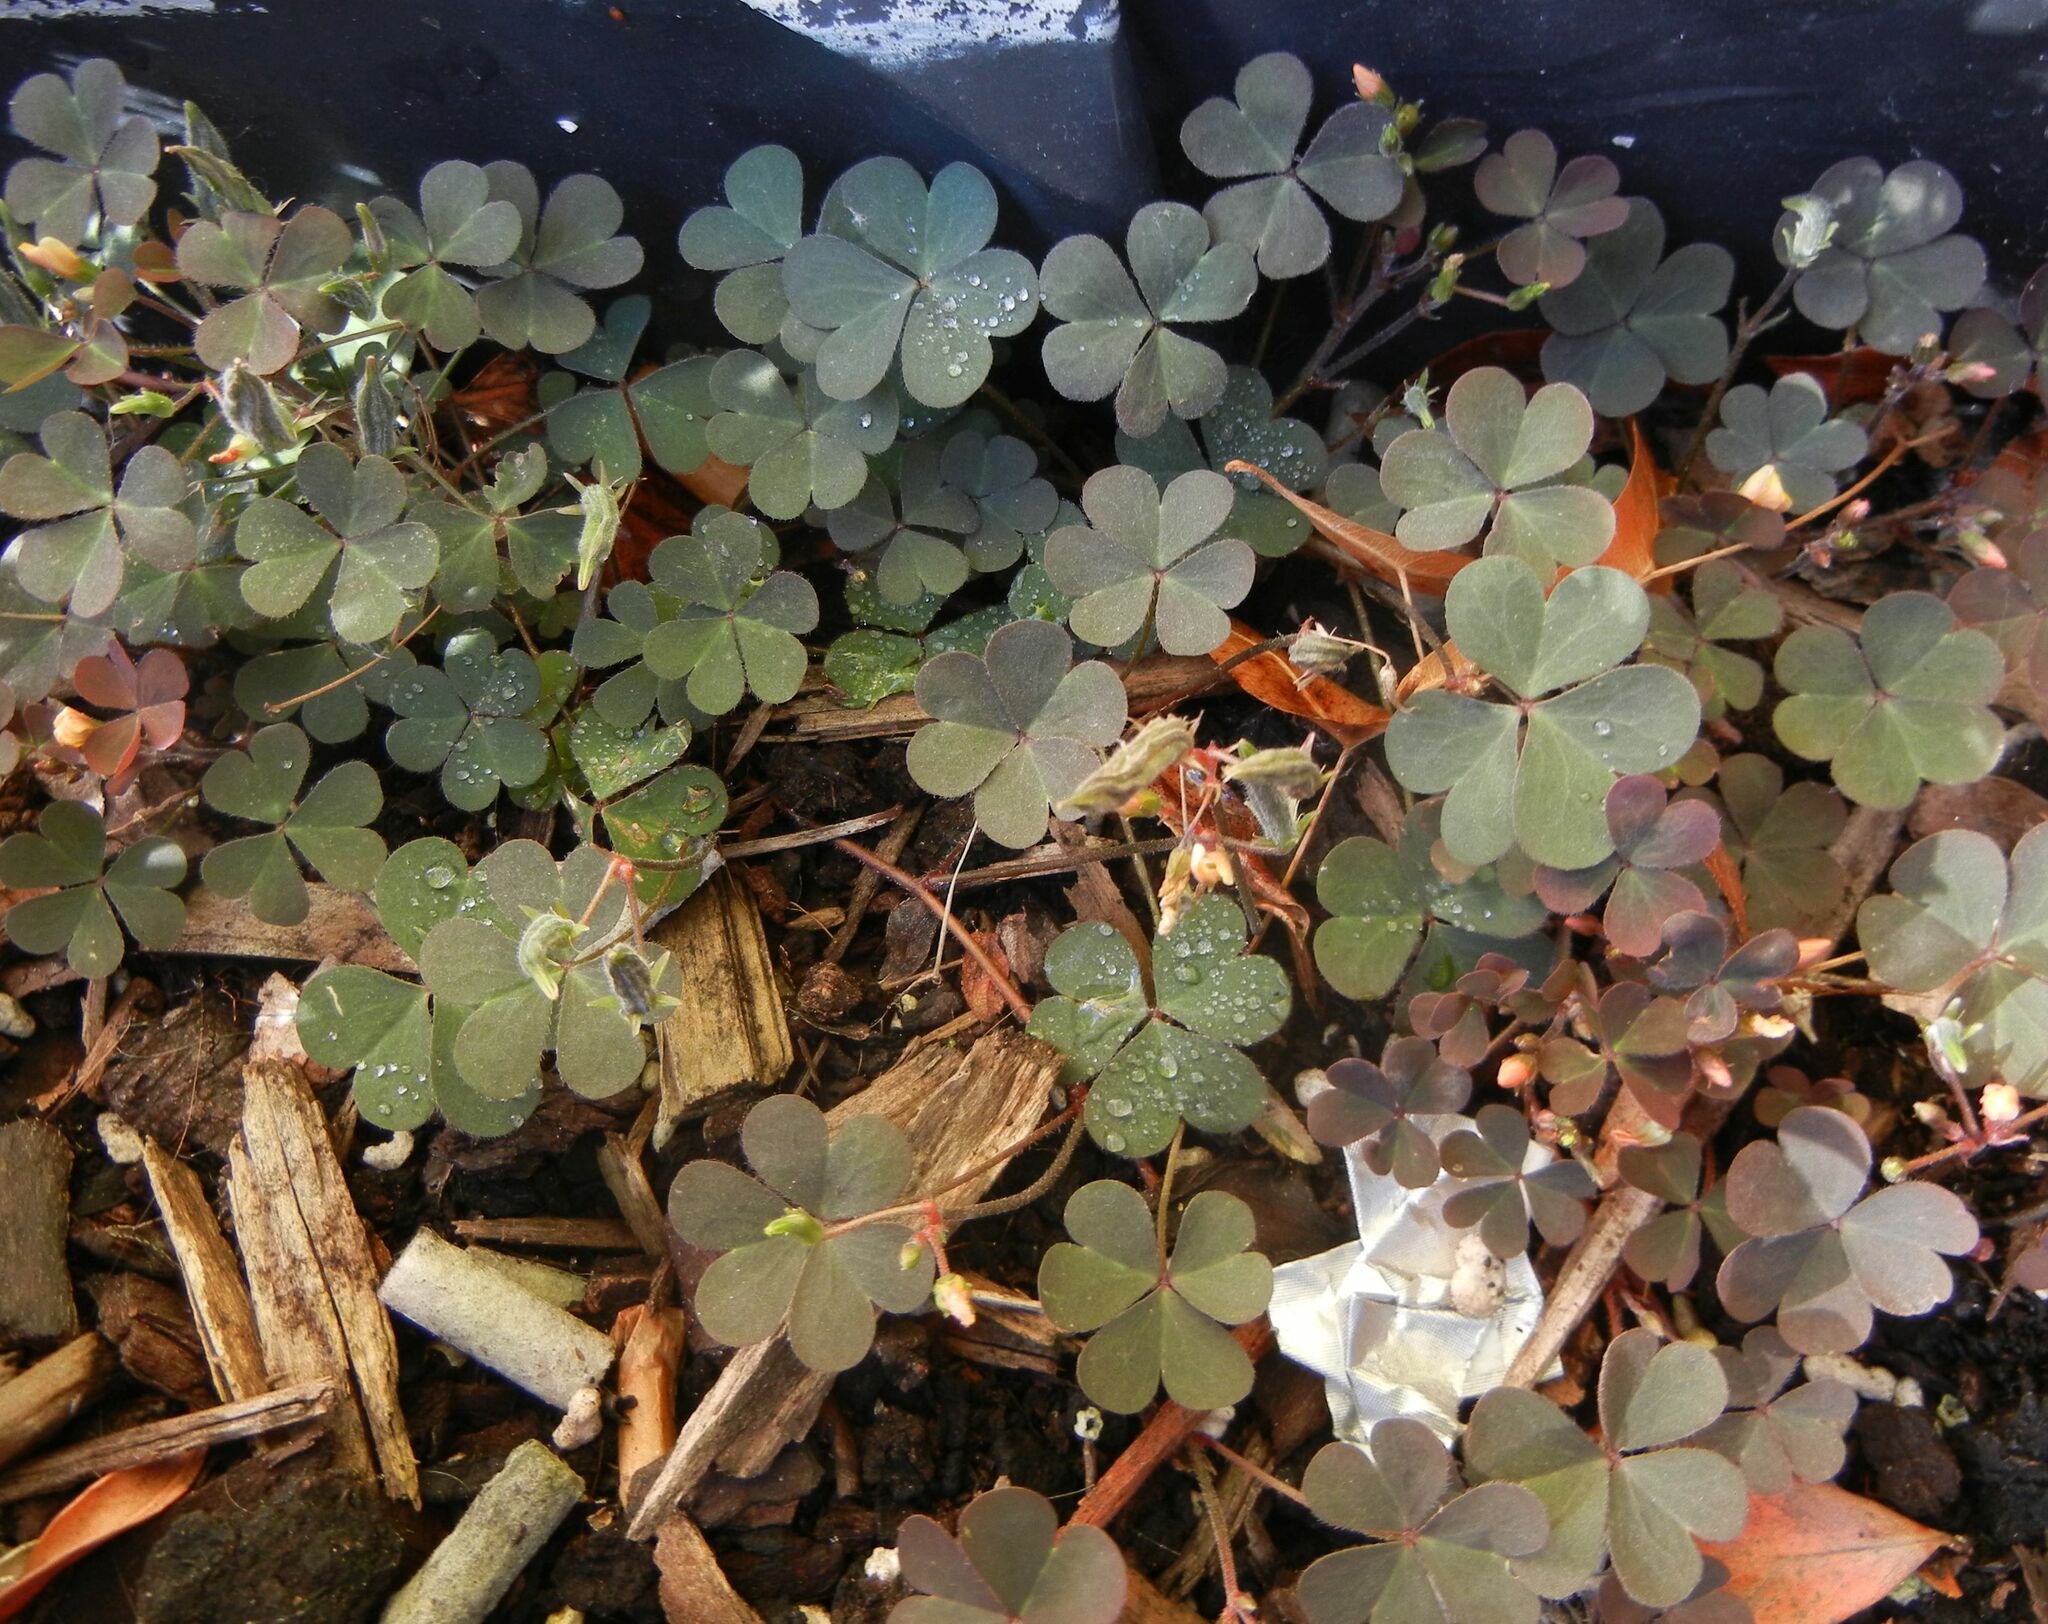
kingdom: Plantae
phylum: Tracheophyta
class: Magnoliopsida
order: Oxalidales
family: Oxalidaceae
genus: Oxalis
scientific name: Oxalis corniculata
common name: Procumbent yellow-sorrel
